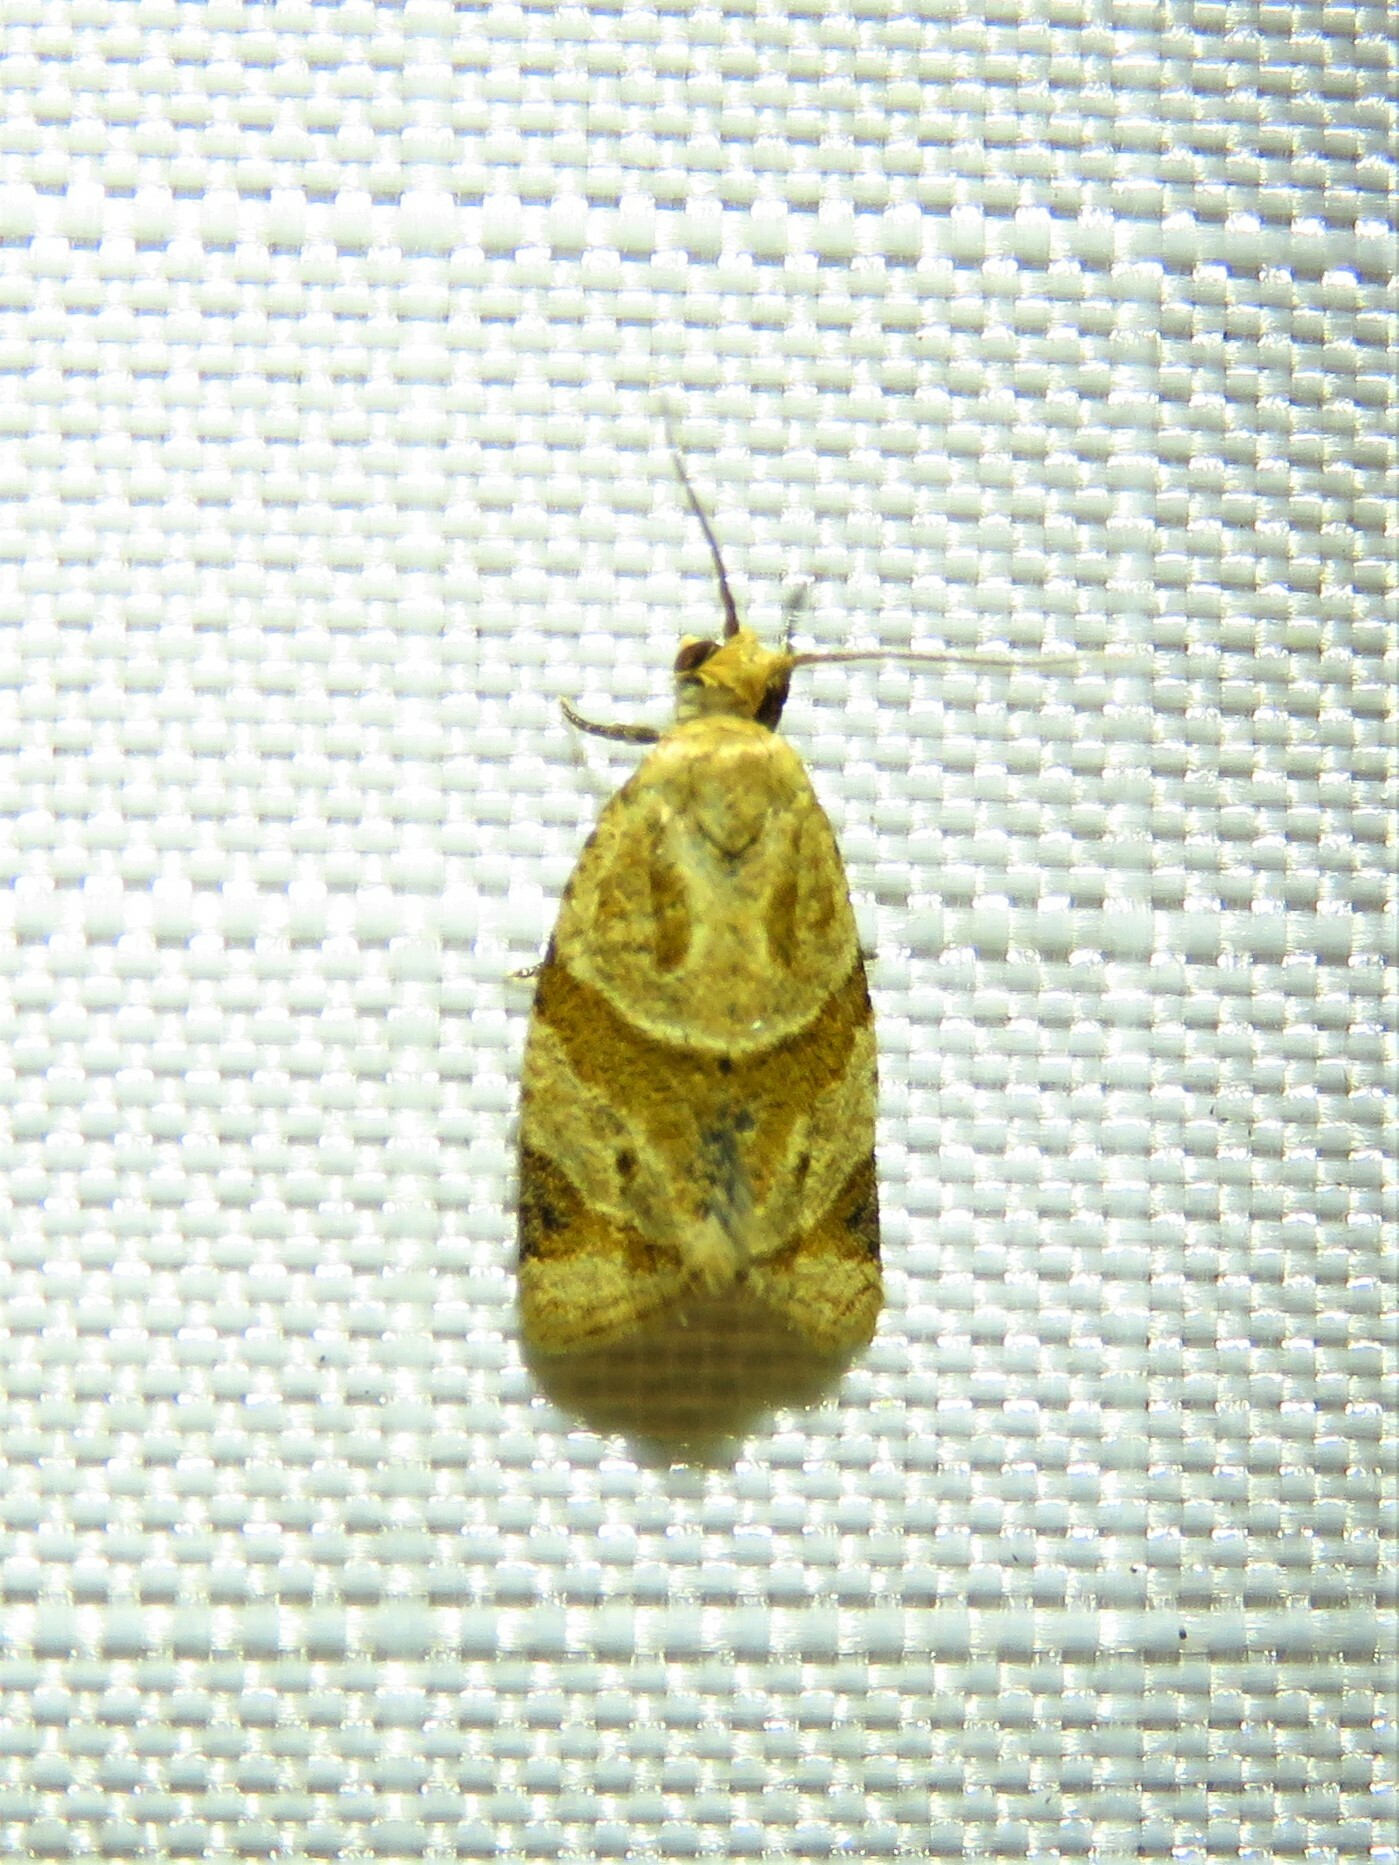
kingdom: Animalia
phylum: Arthropoda
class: Insecta
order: Lepidoptera
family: Tortricidae
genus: Clepsis
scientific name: Clepsis peritana
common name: Garden tortrix
